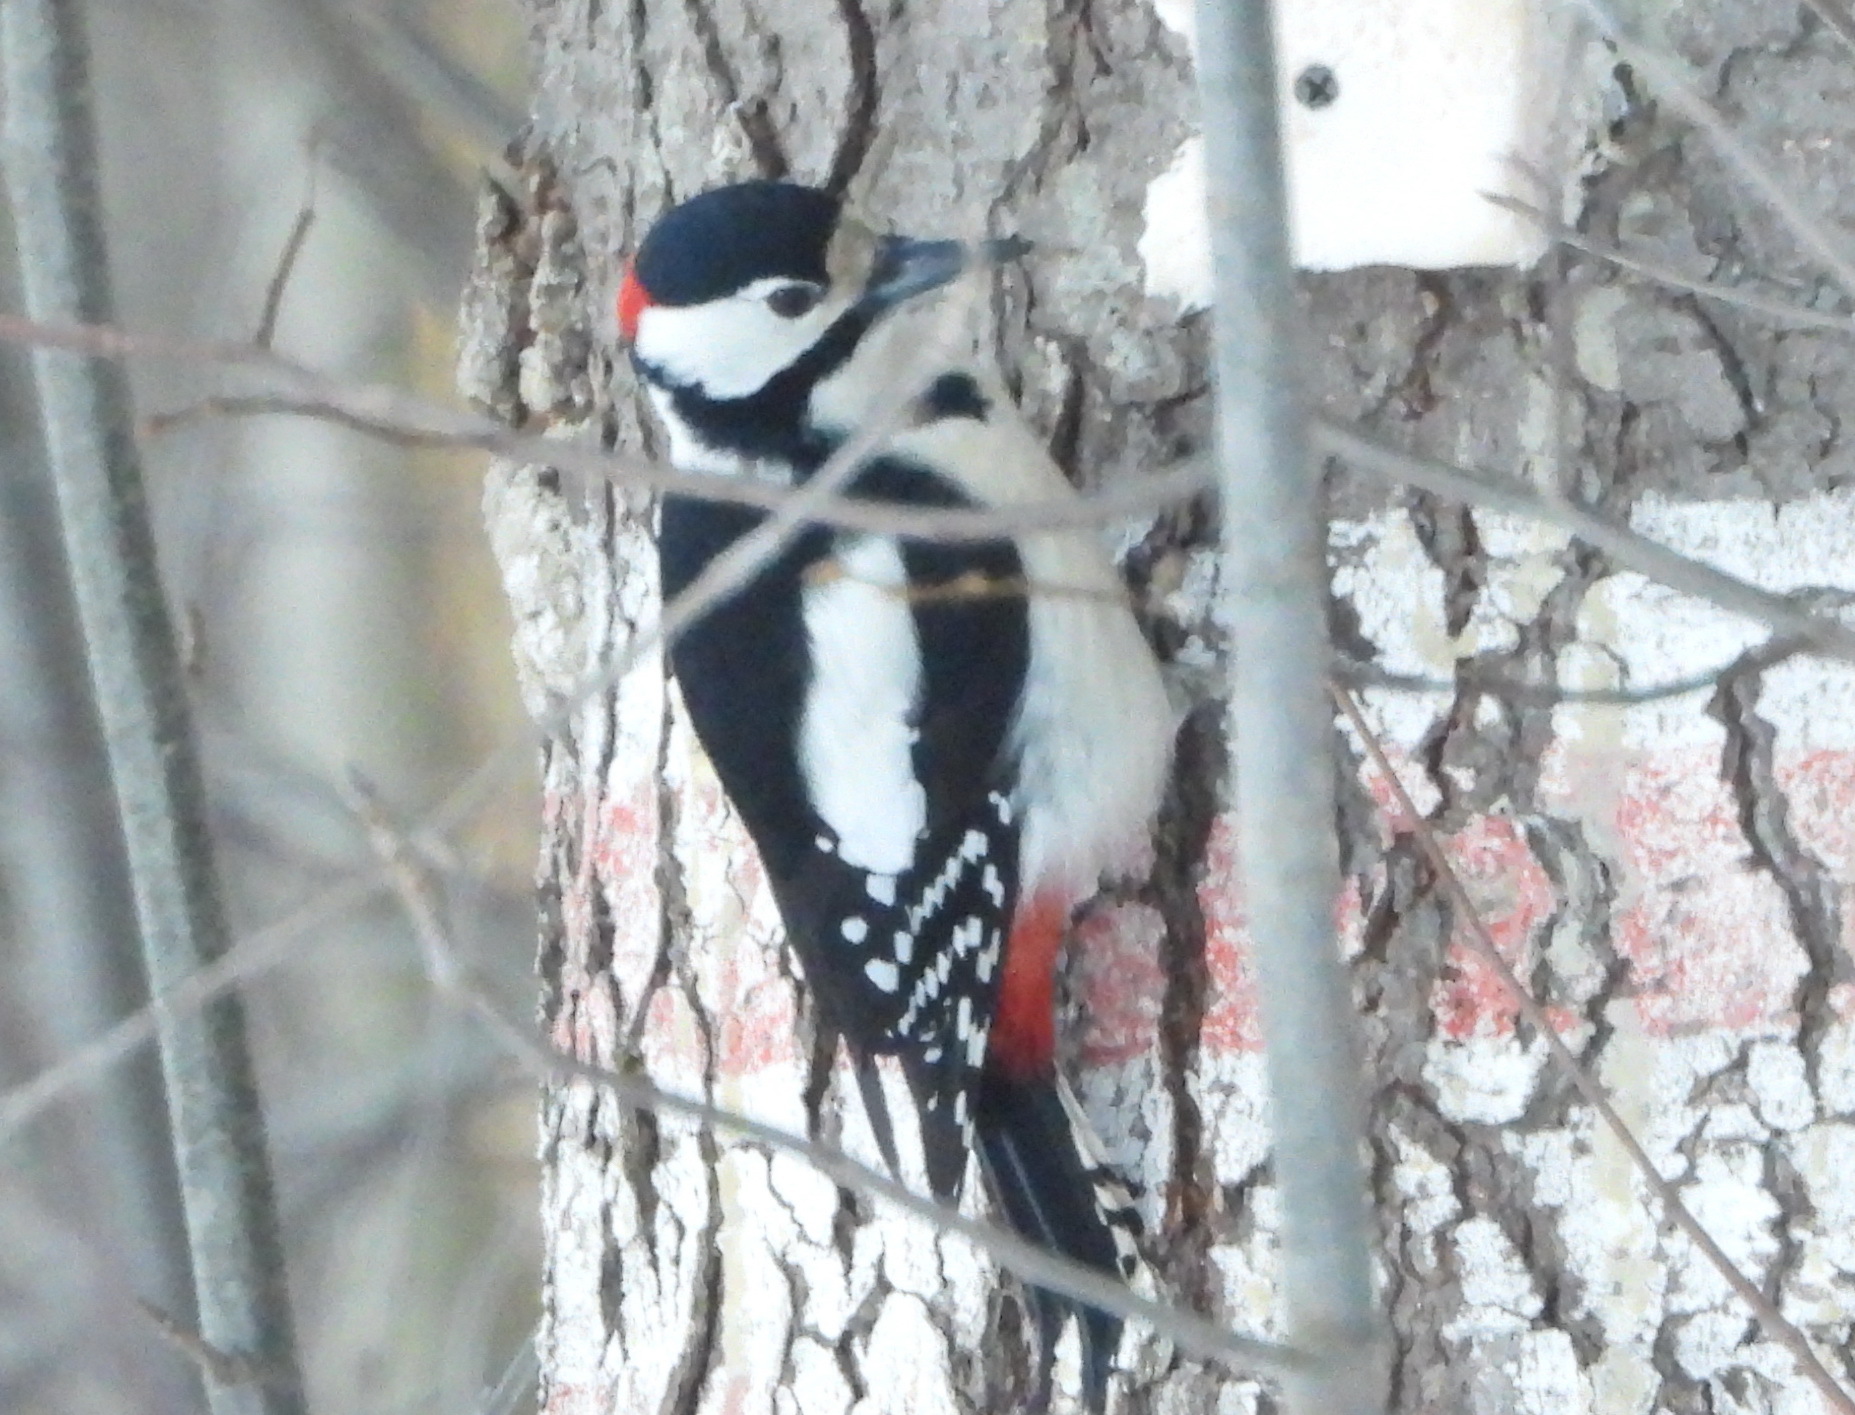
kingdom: Animalia
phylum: Chordata
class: Aves
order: Piciformes
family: Picidae
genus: Dendrocopos
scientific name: Dendrocopos major
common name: Great spotted woodpecker
